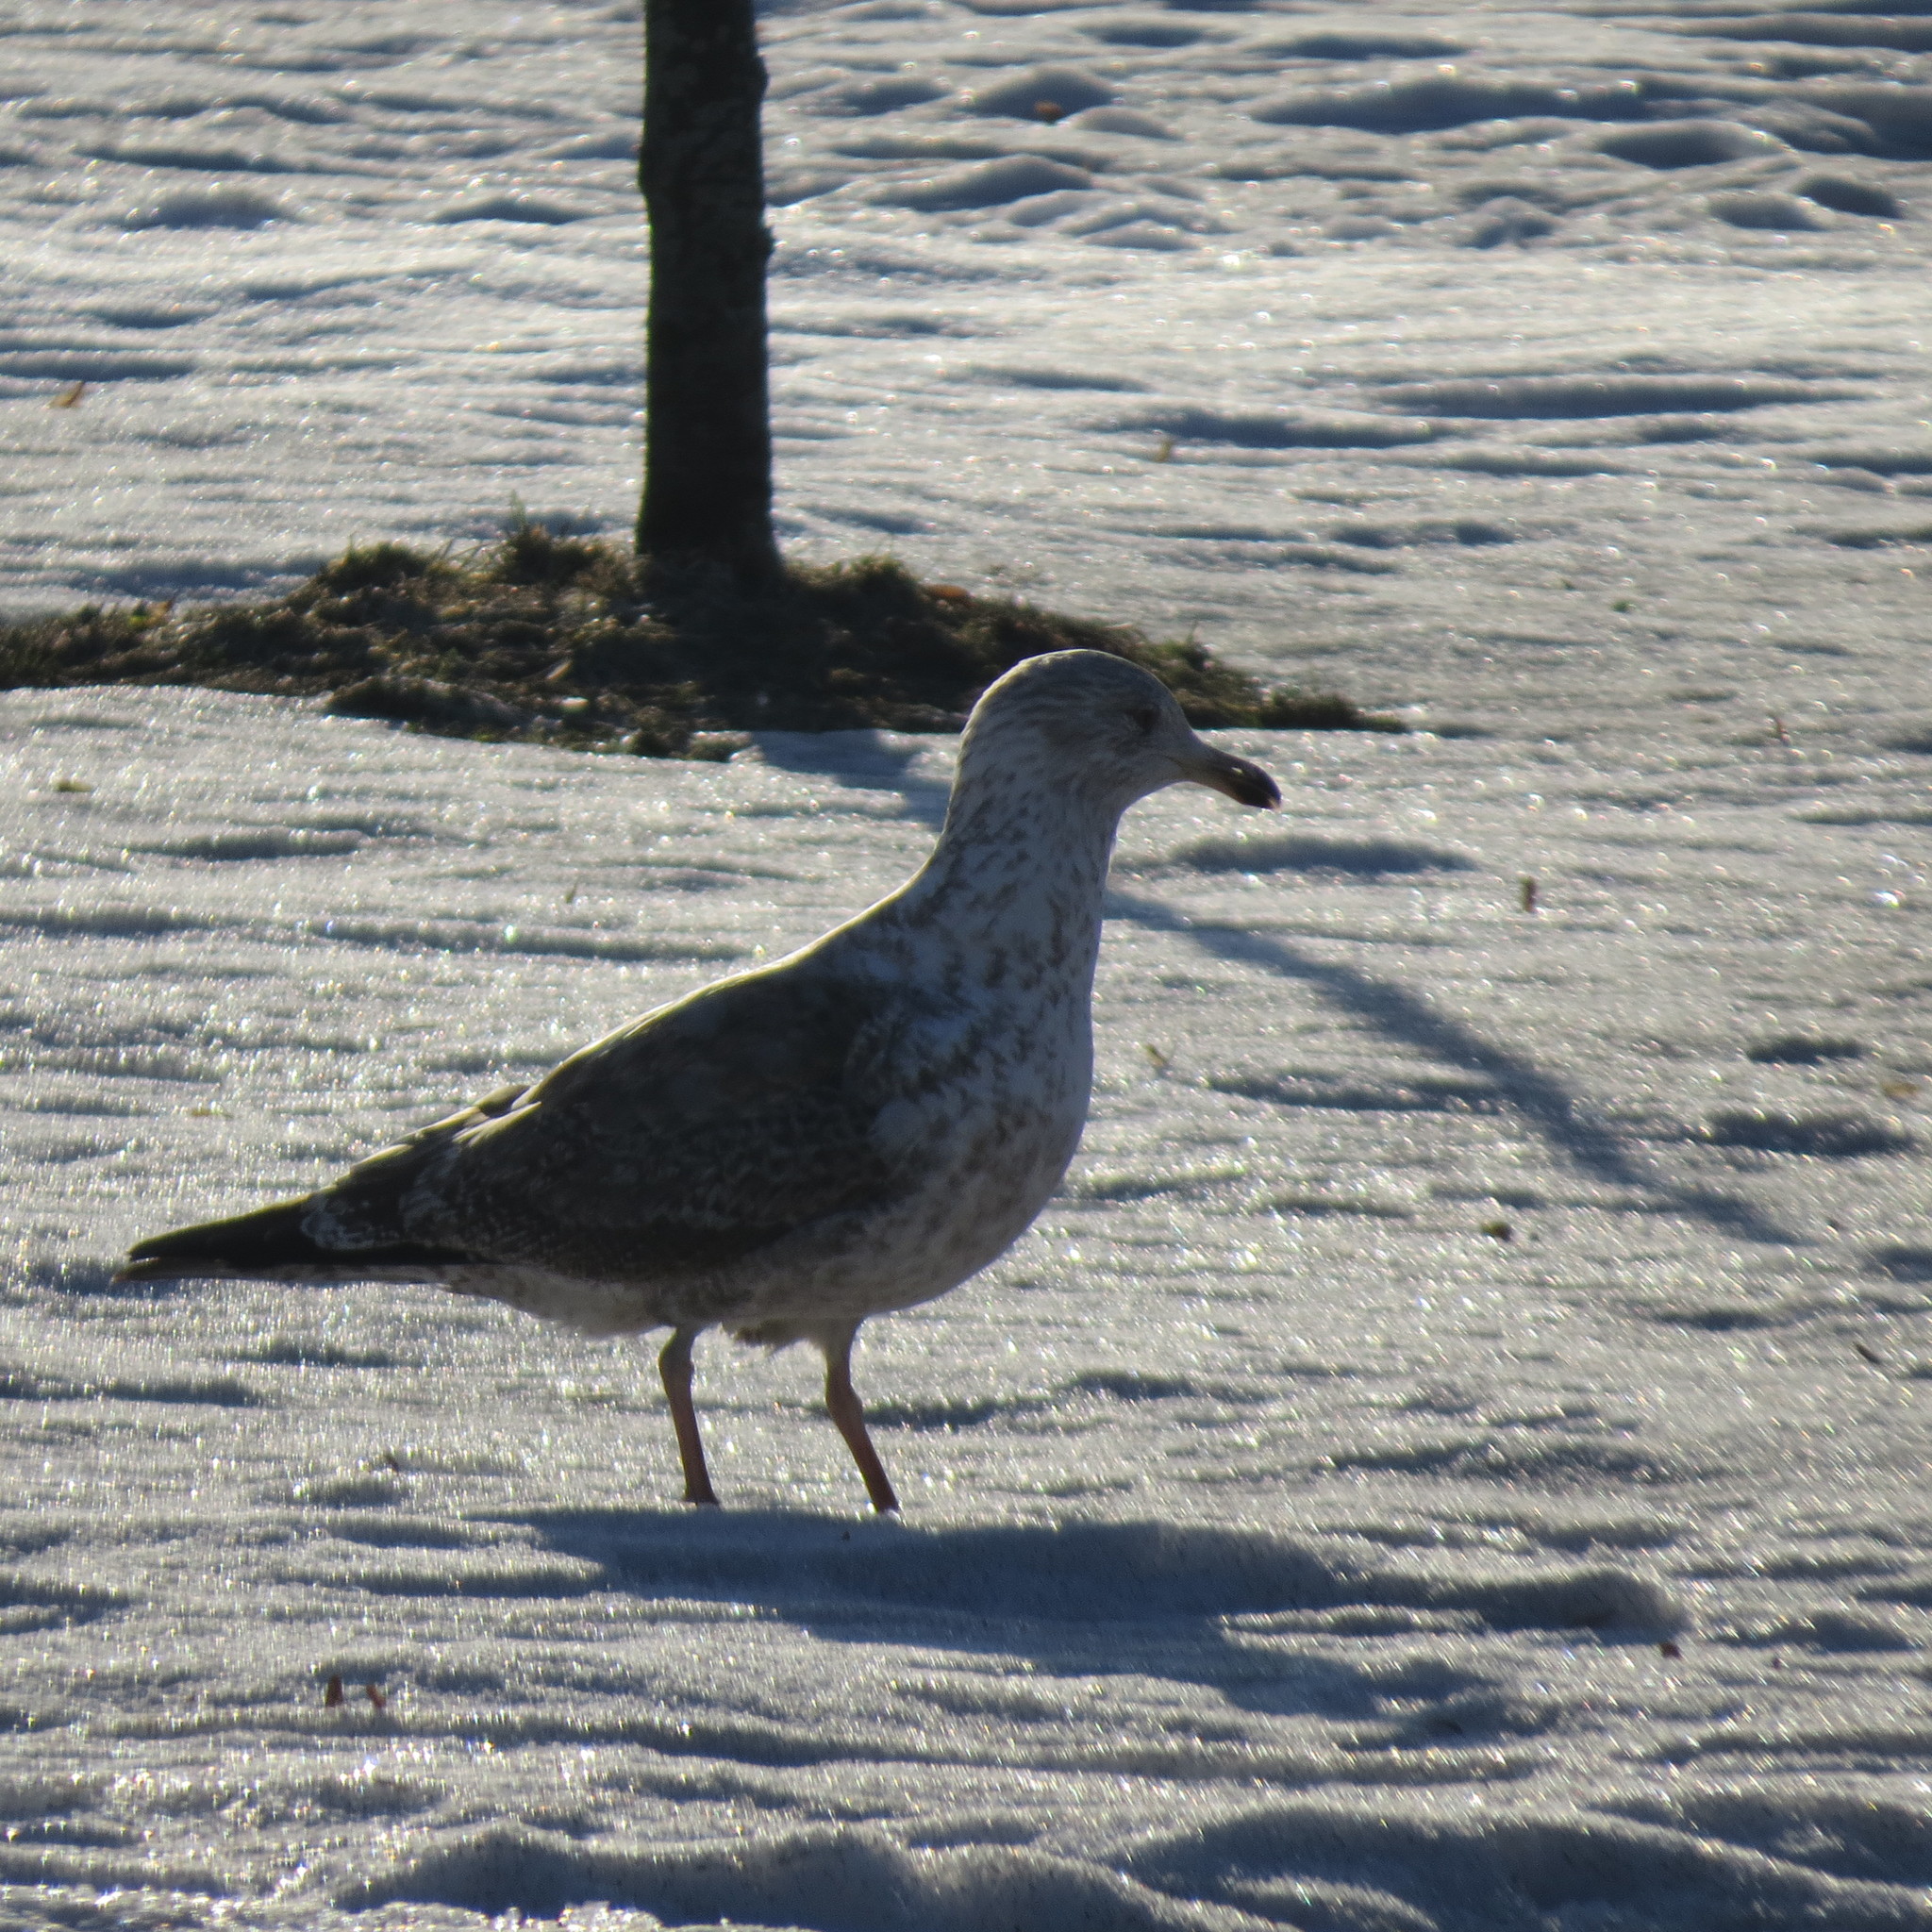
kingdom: Animalia
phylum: Chordata
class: Aves
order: Charadriiformes
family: Laridae
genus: Larus
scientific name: Larus argentatus
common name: Herring gull
